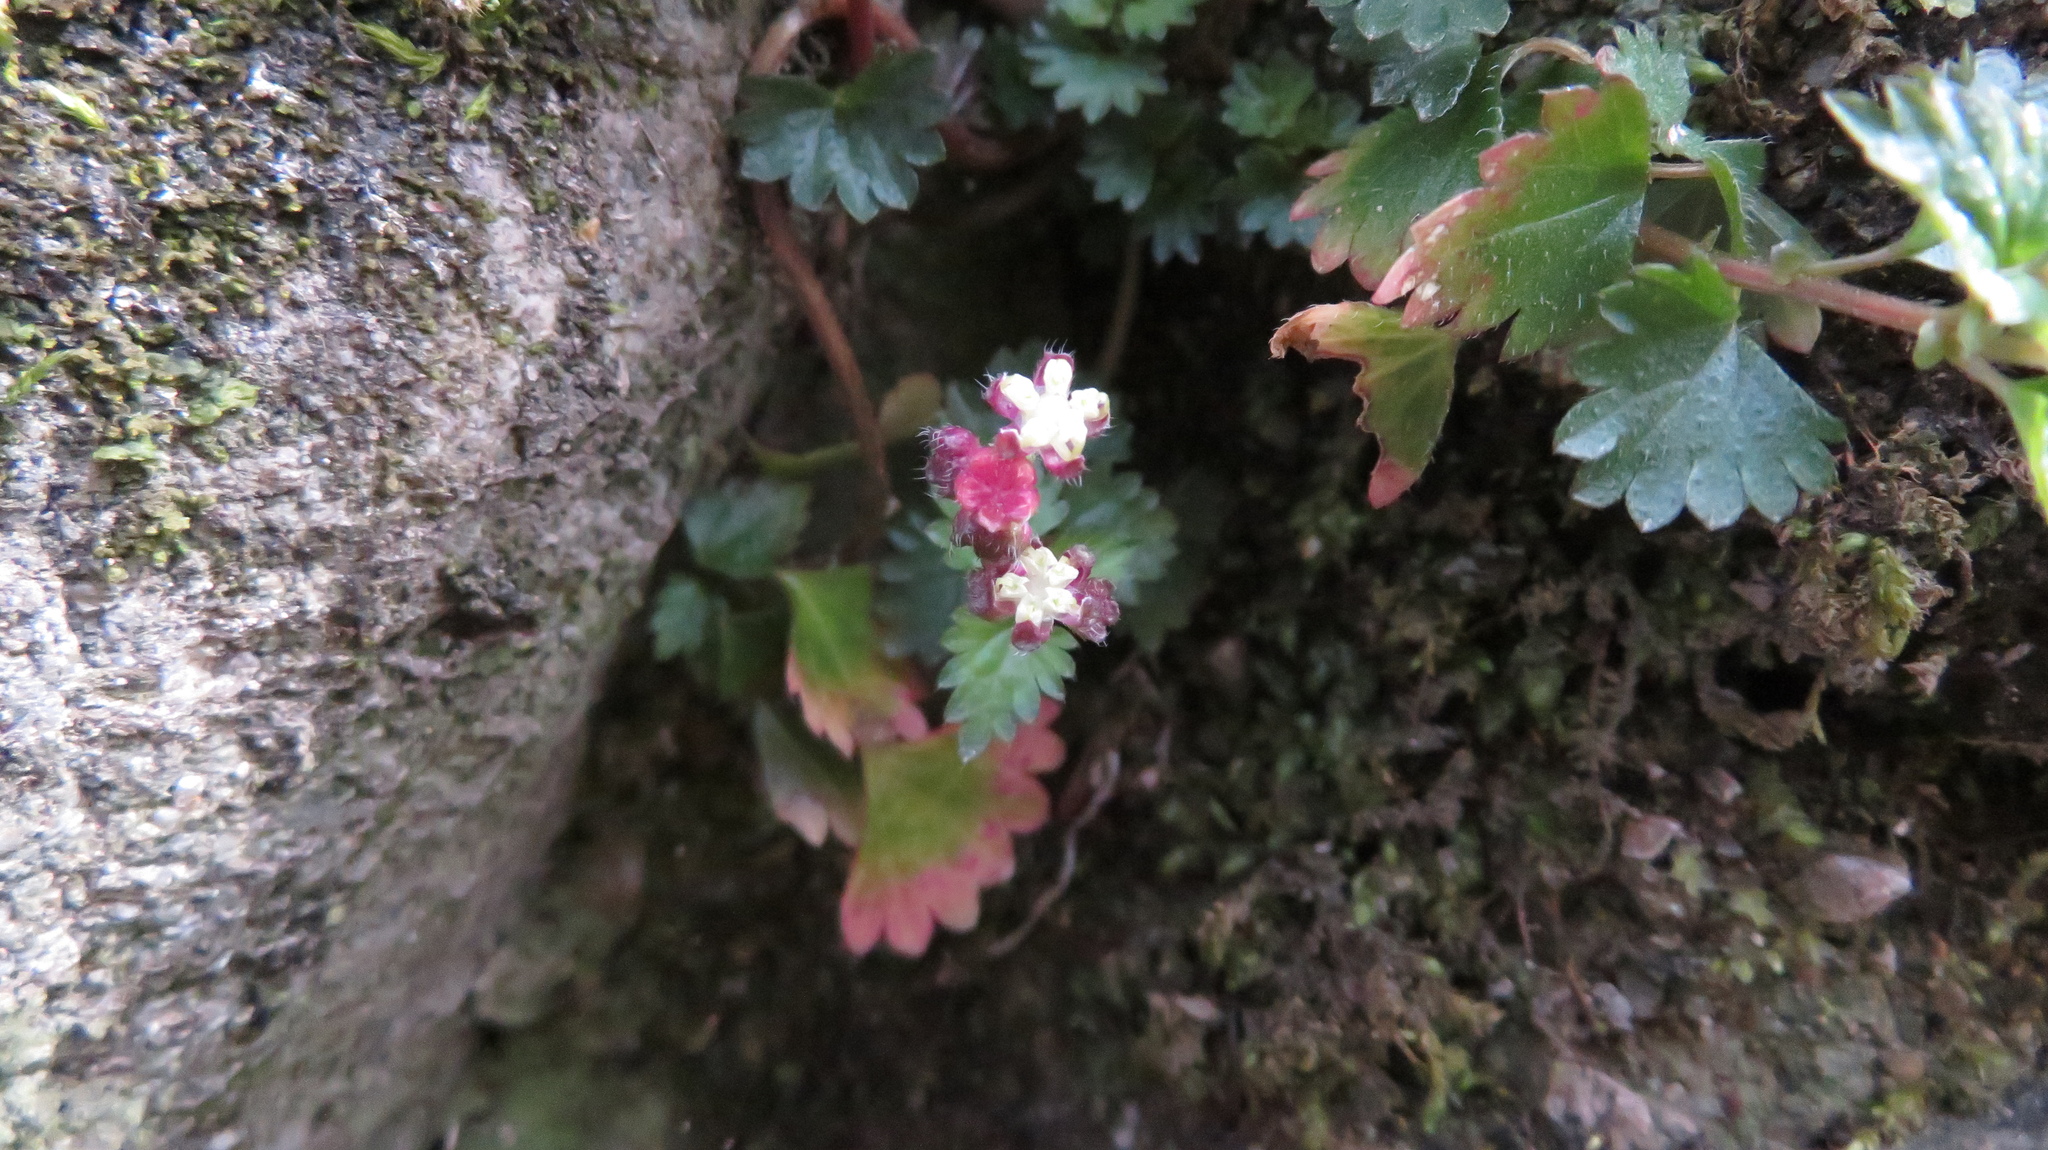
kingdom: Plantae
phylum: Tracheophyta
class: Magnoliopsida
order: Rosales
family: Urticaceae
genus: Nanocnide
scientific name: Nanocnide japonica
